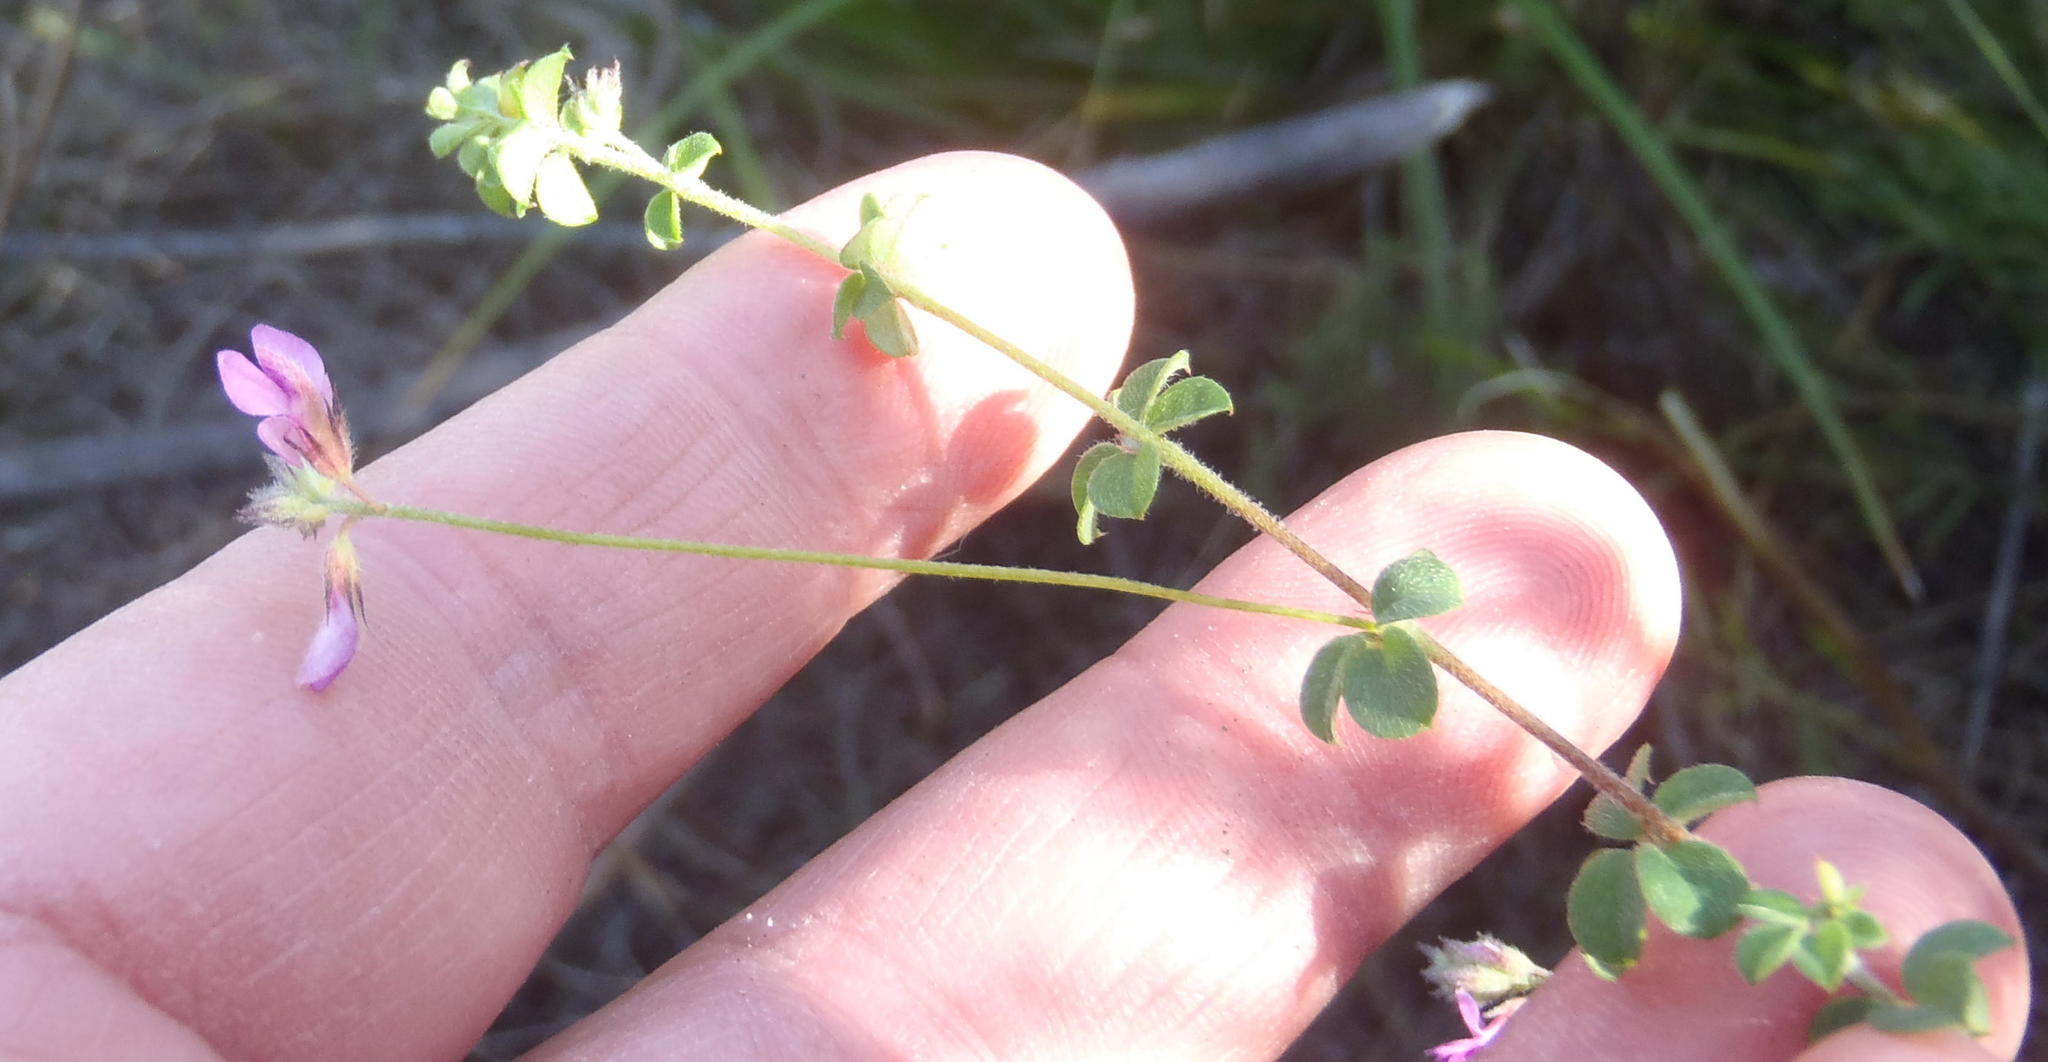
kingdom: Plantae
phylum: Tracheophyta
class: Magnoliopsida
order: Fabales
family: Fabaceae
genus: Indigofera
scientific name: Indigofera alopecuroides
